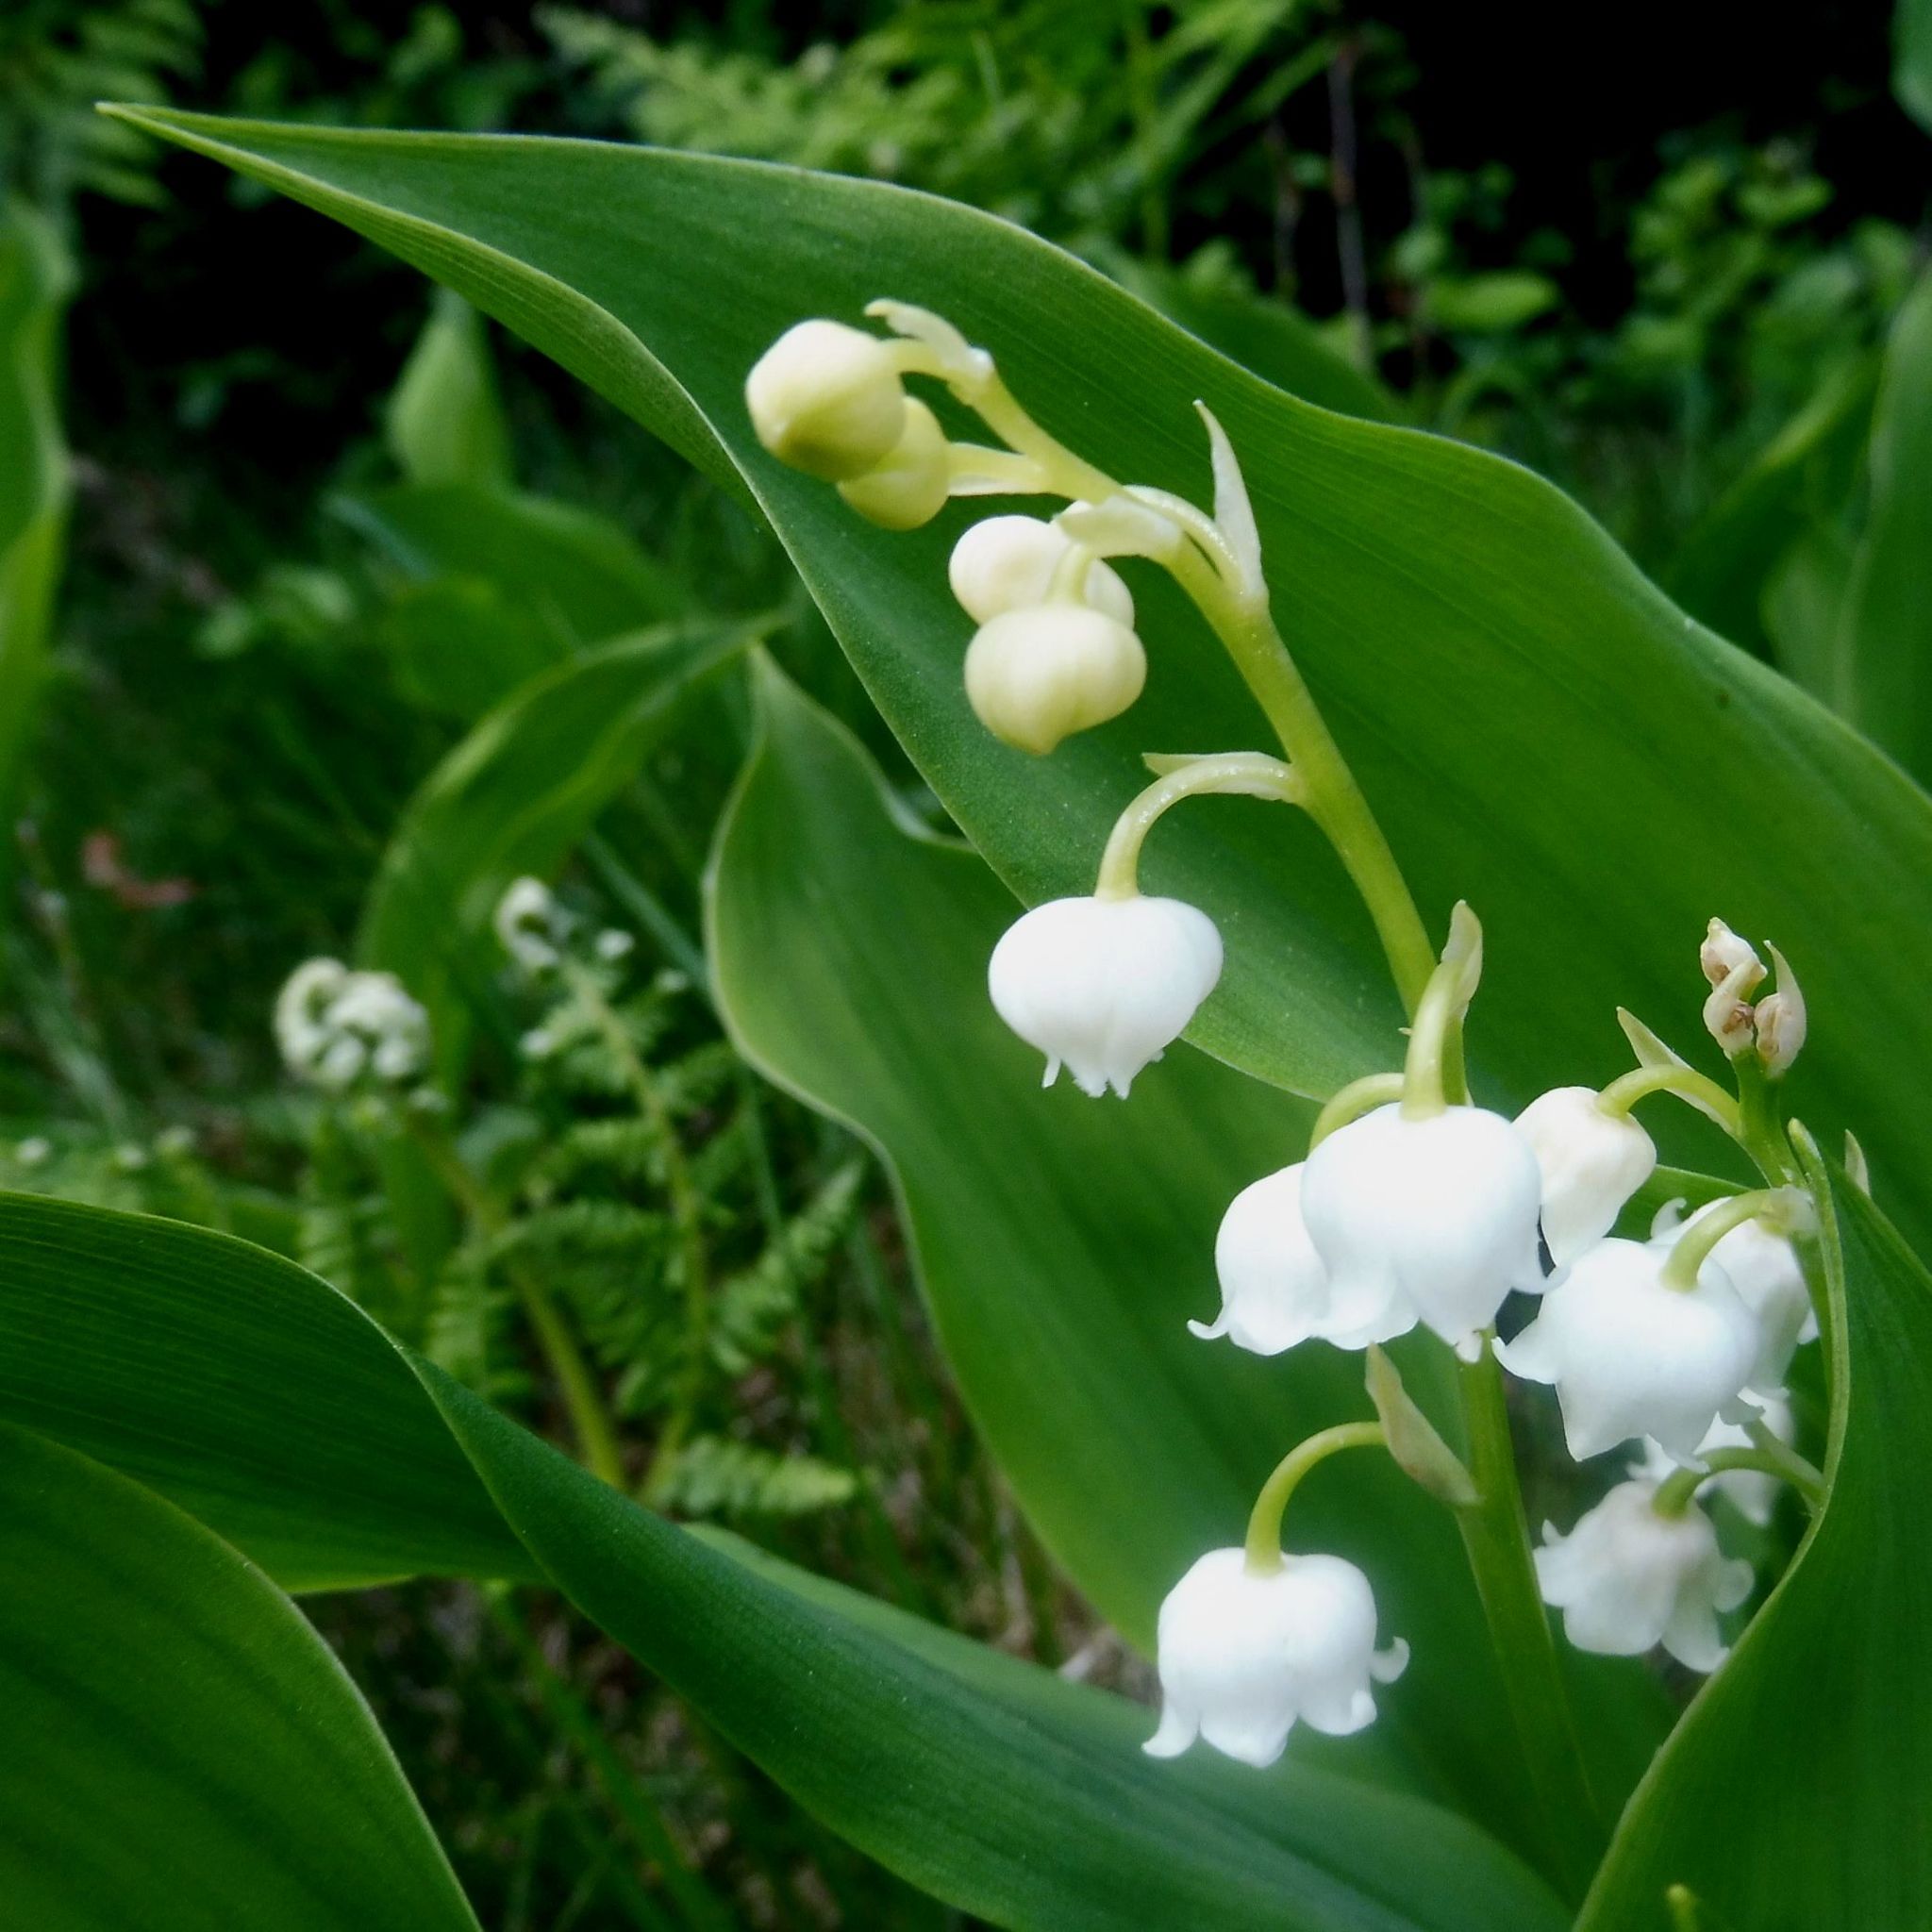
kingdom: Plantae
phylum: Tracheophyta
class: Liliopsida
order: Asparagales
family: Asparagaceae
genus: Convallaria
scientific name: Convallaria majalis
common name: Lily-of-the-valley
